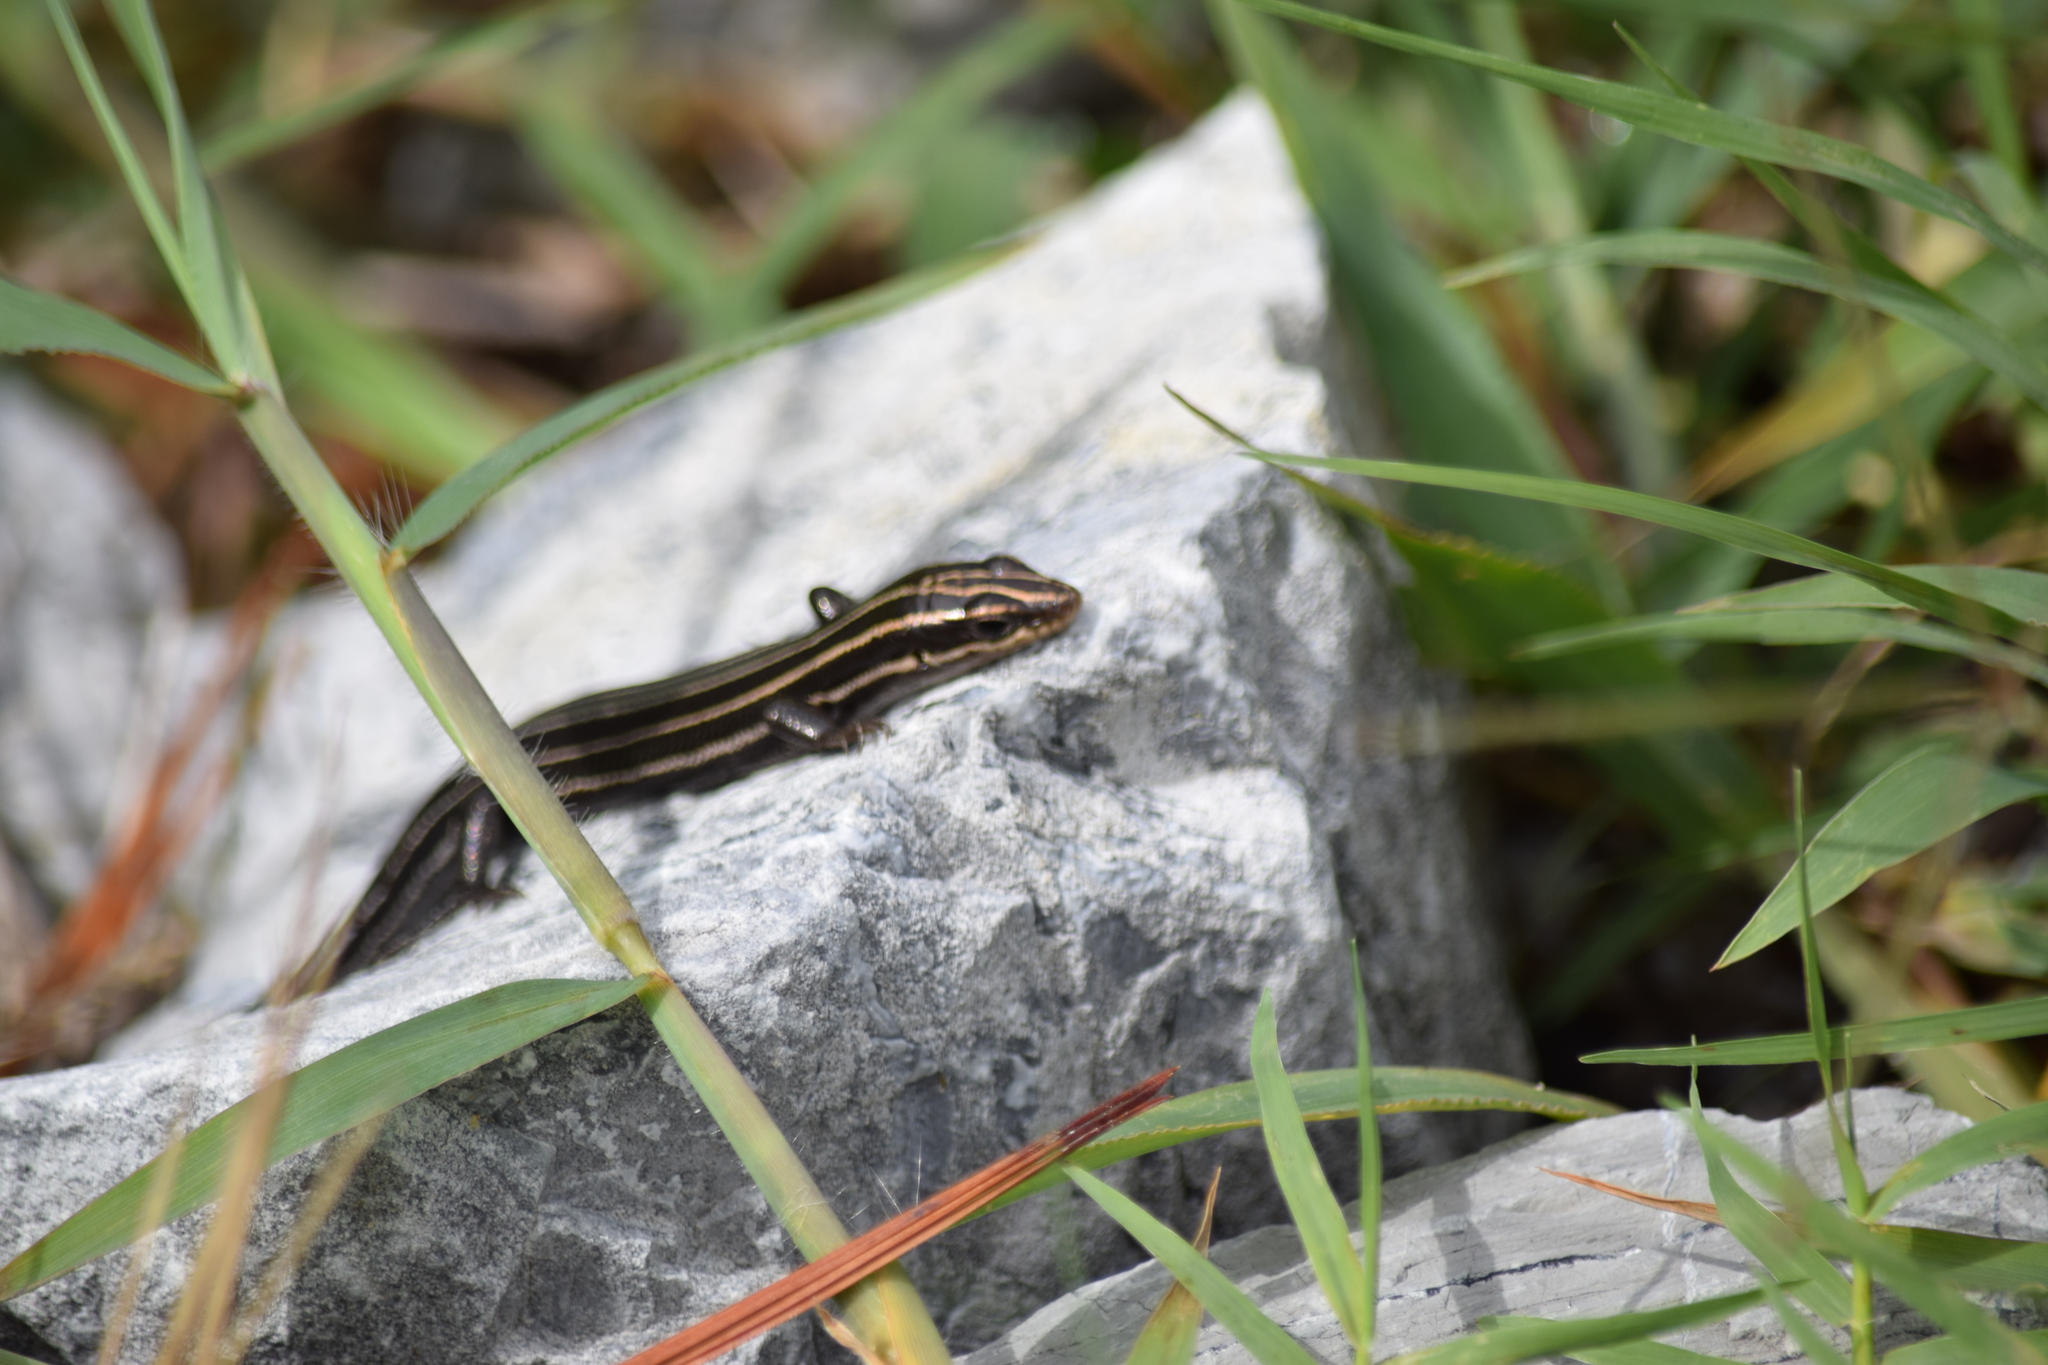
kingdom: Animalia
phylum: Chordata
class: Squamata
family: Scincidae
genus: Plestiodon
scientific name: Plestiodon fasciatus
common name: Five-lined skink
